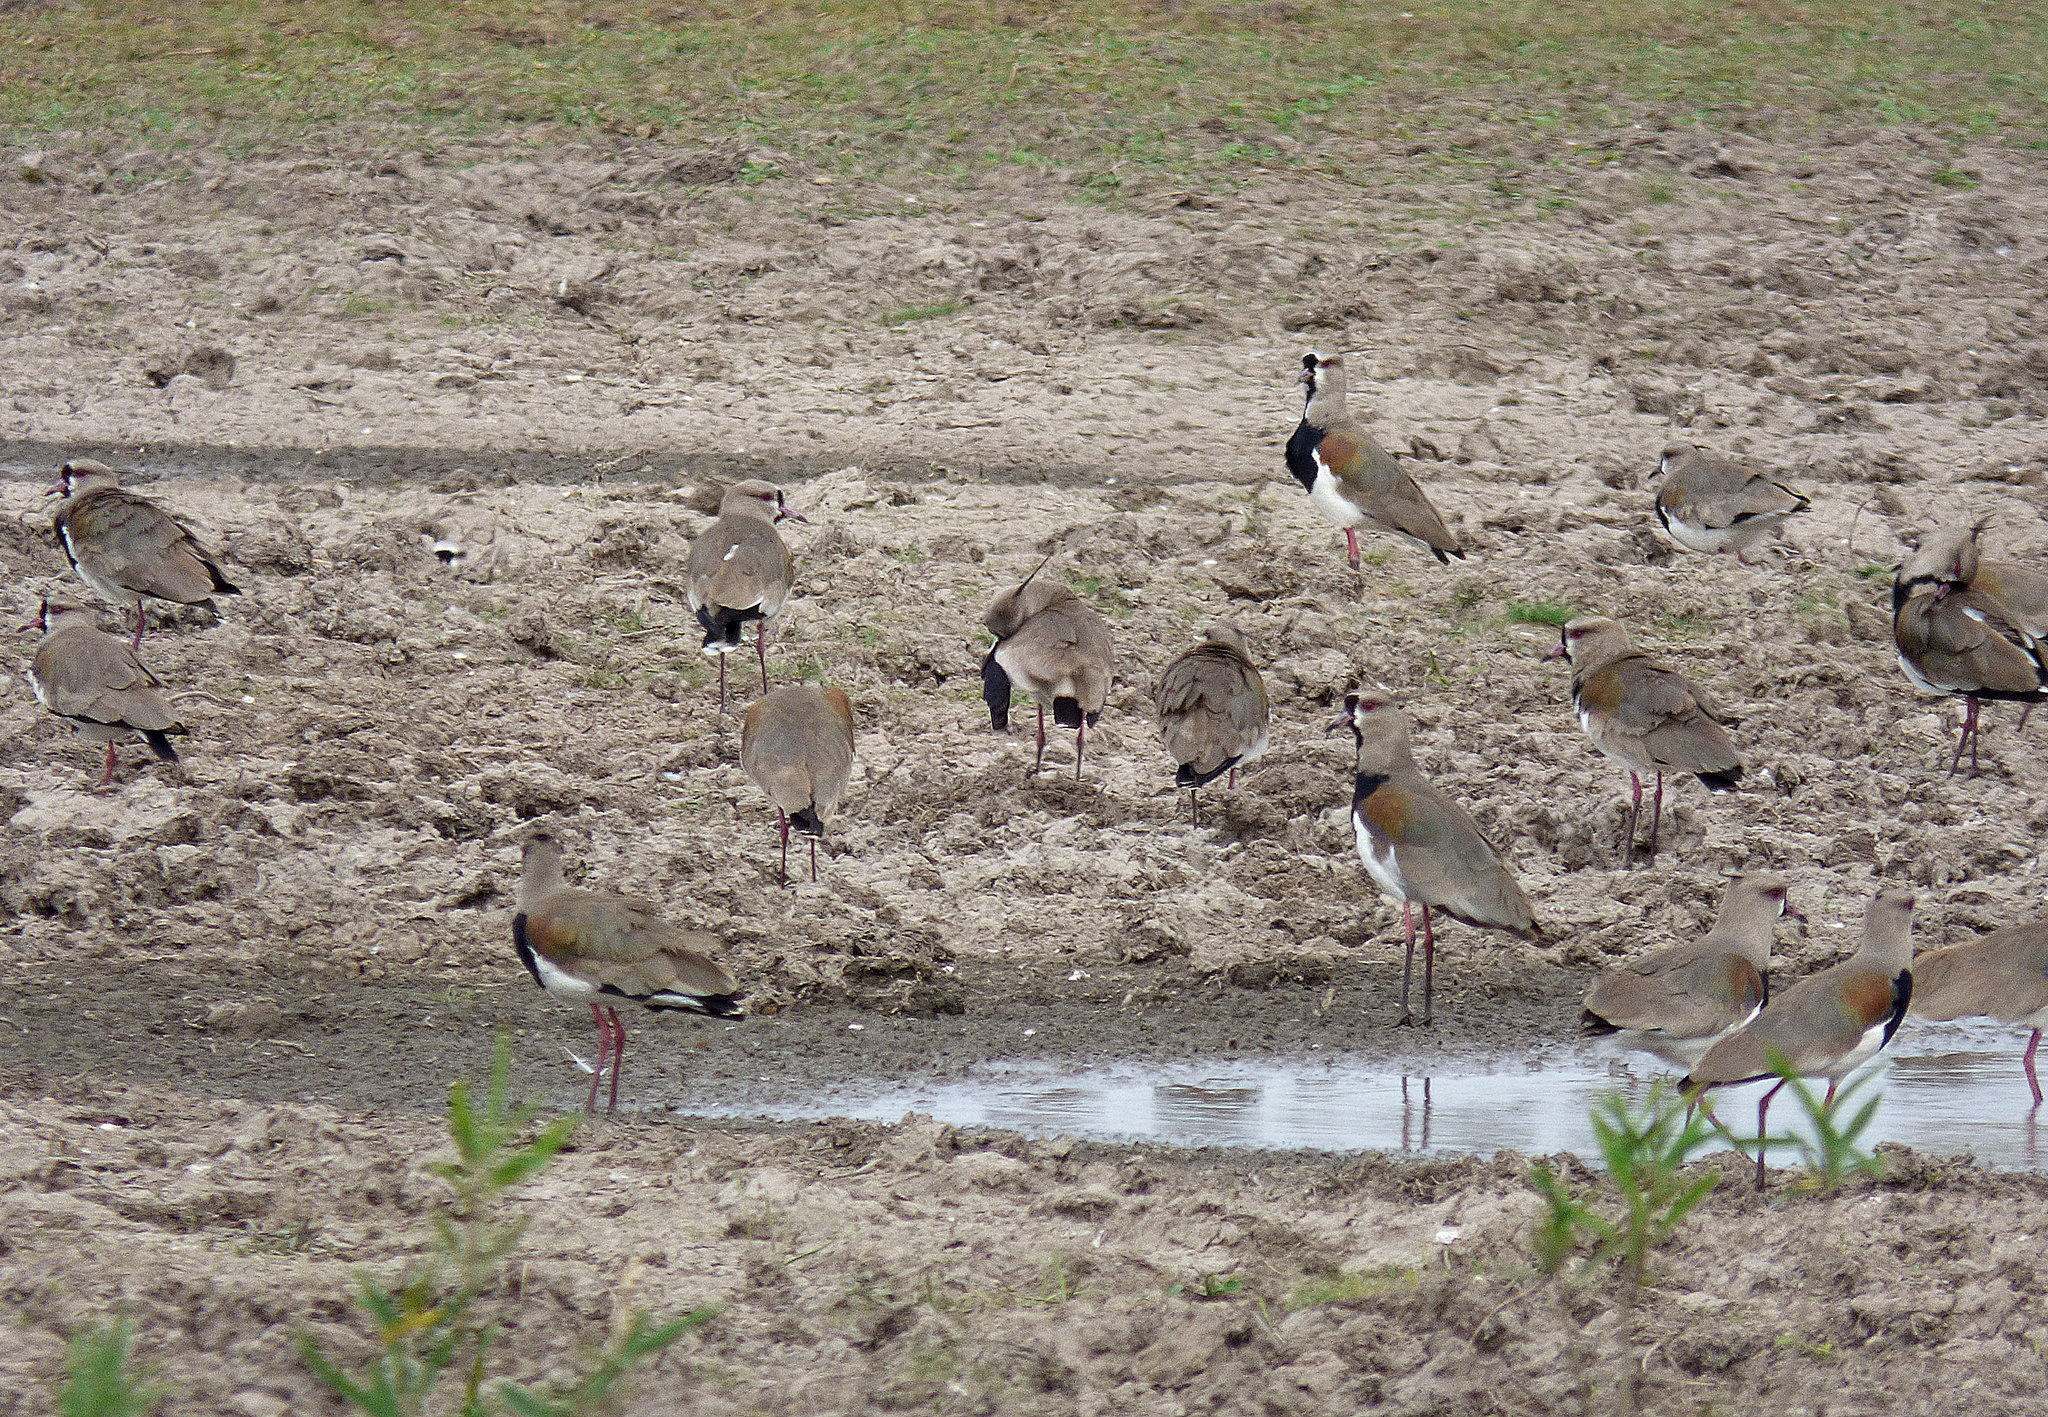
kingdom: Animalia
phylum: Chordata
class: Aves
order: Charadriiformes
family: Charadriidae
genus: Vanellus
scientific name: Vanellus chilensis
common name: Southern lapwing
